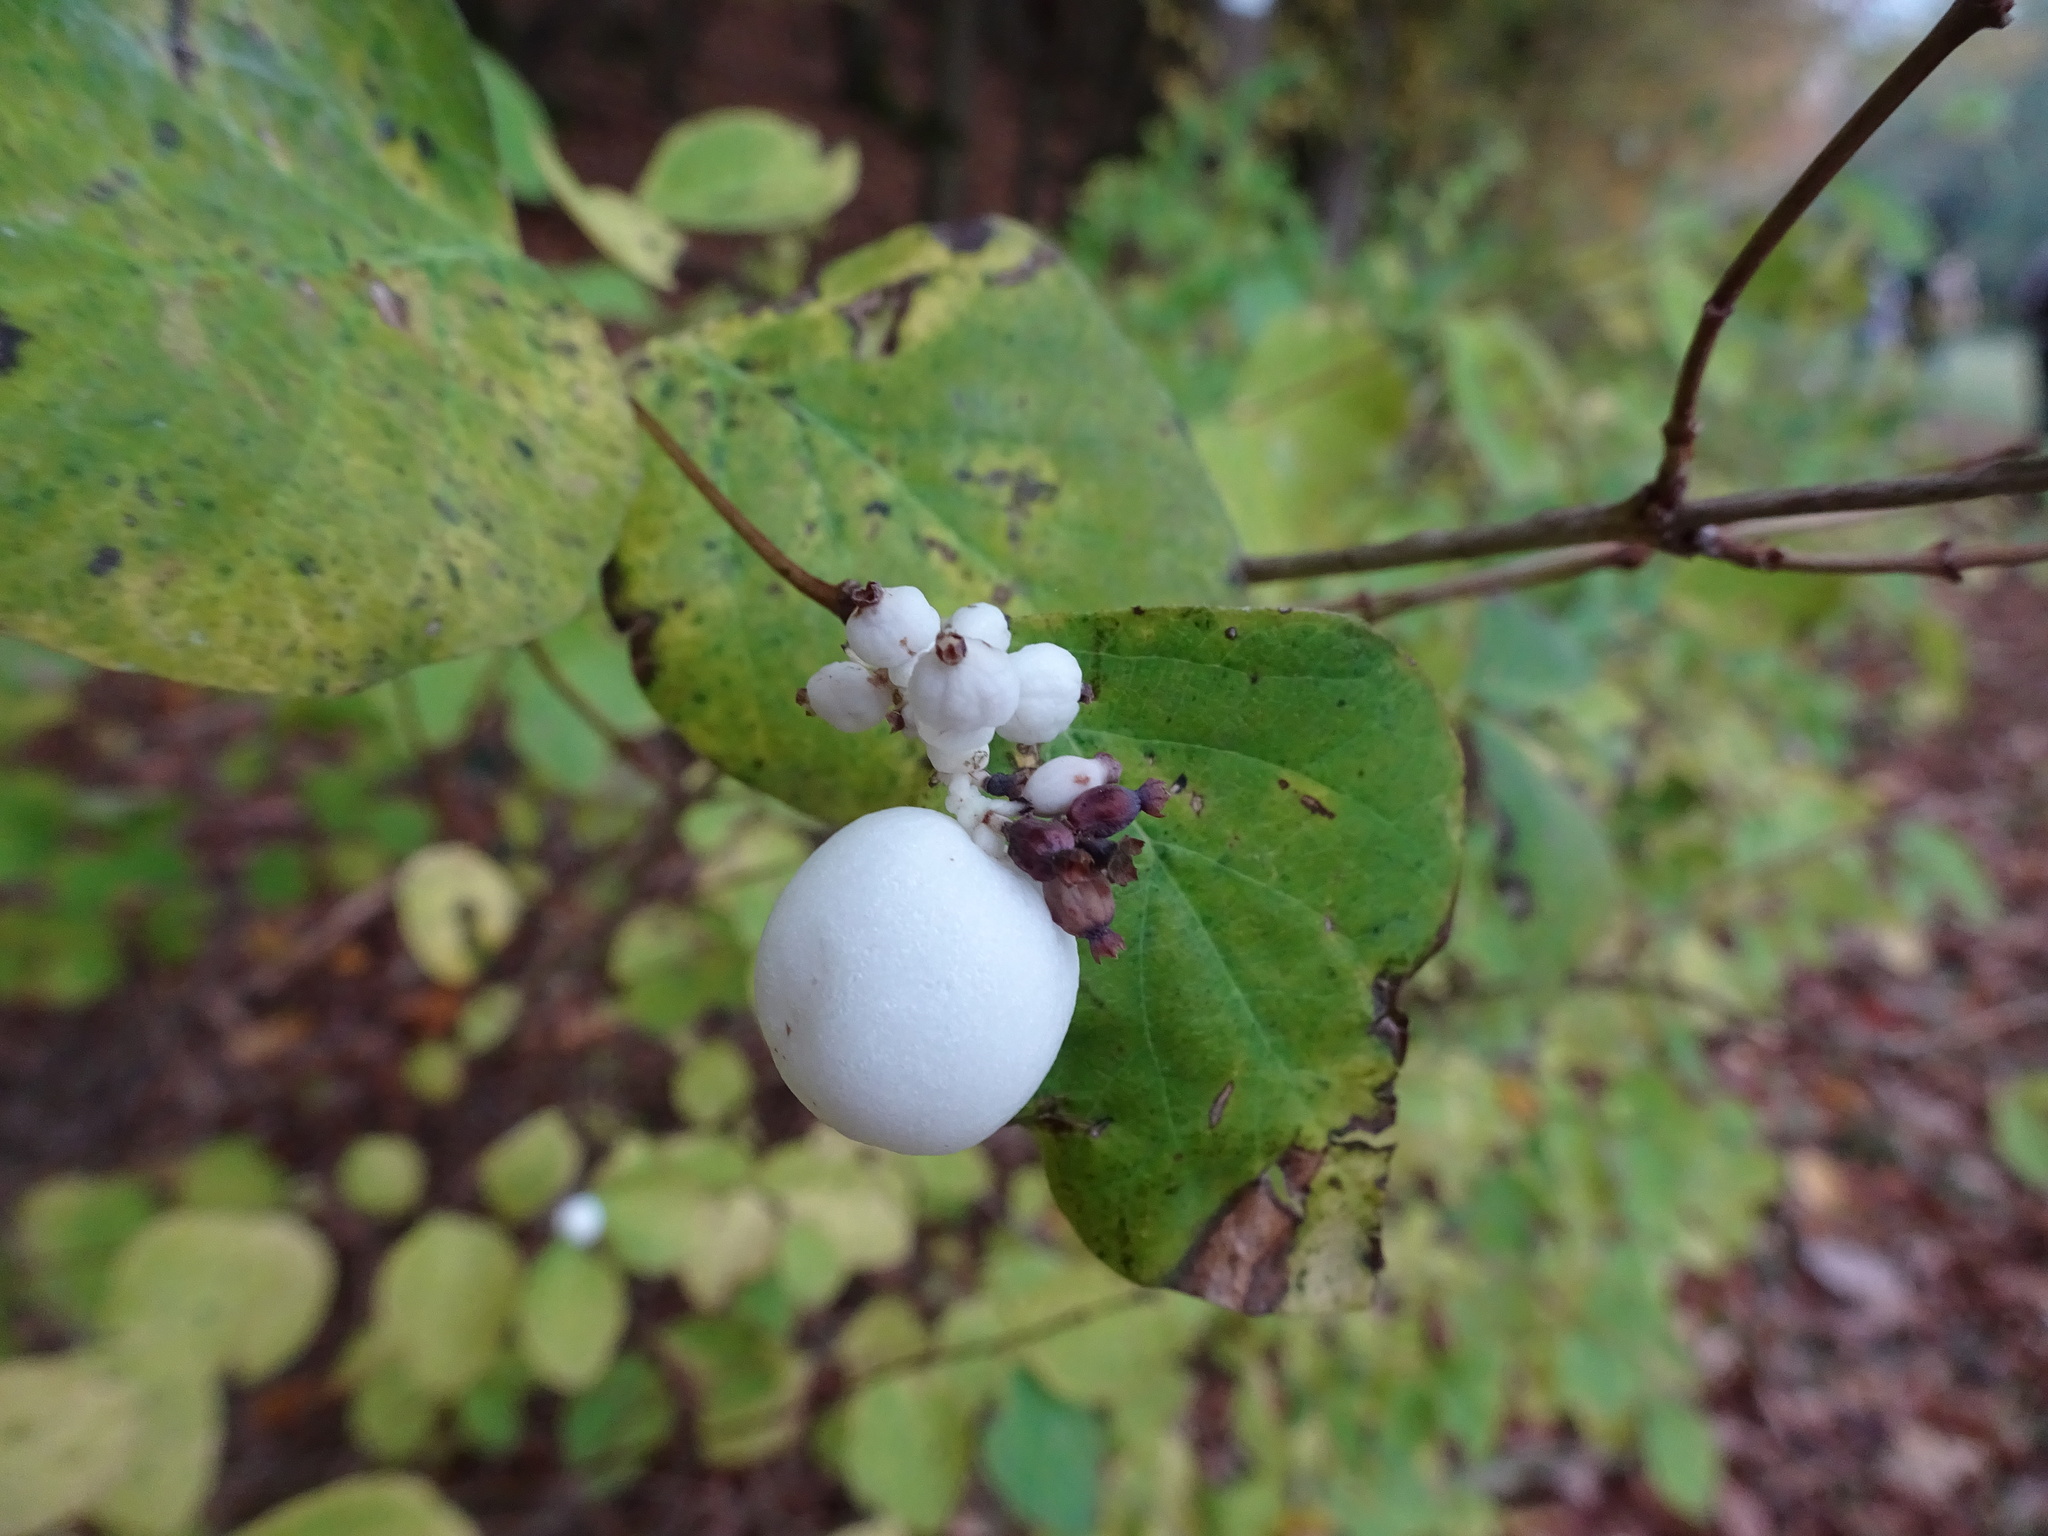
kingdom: Plantae
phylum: Tracheophyta
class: Magnoliopsida
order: Dipsacales
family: Caprifoliaceae
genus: Symphoricarpos
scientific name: Symphoricarpos albus
